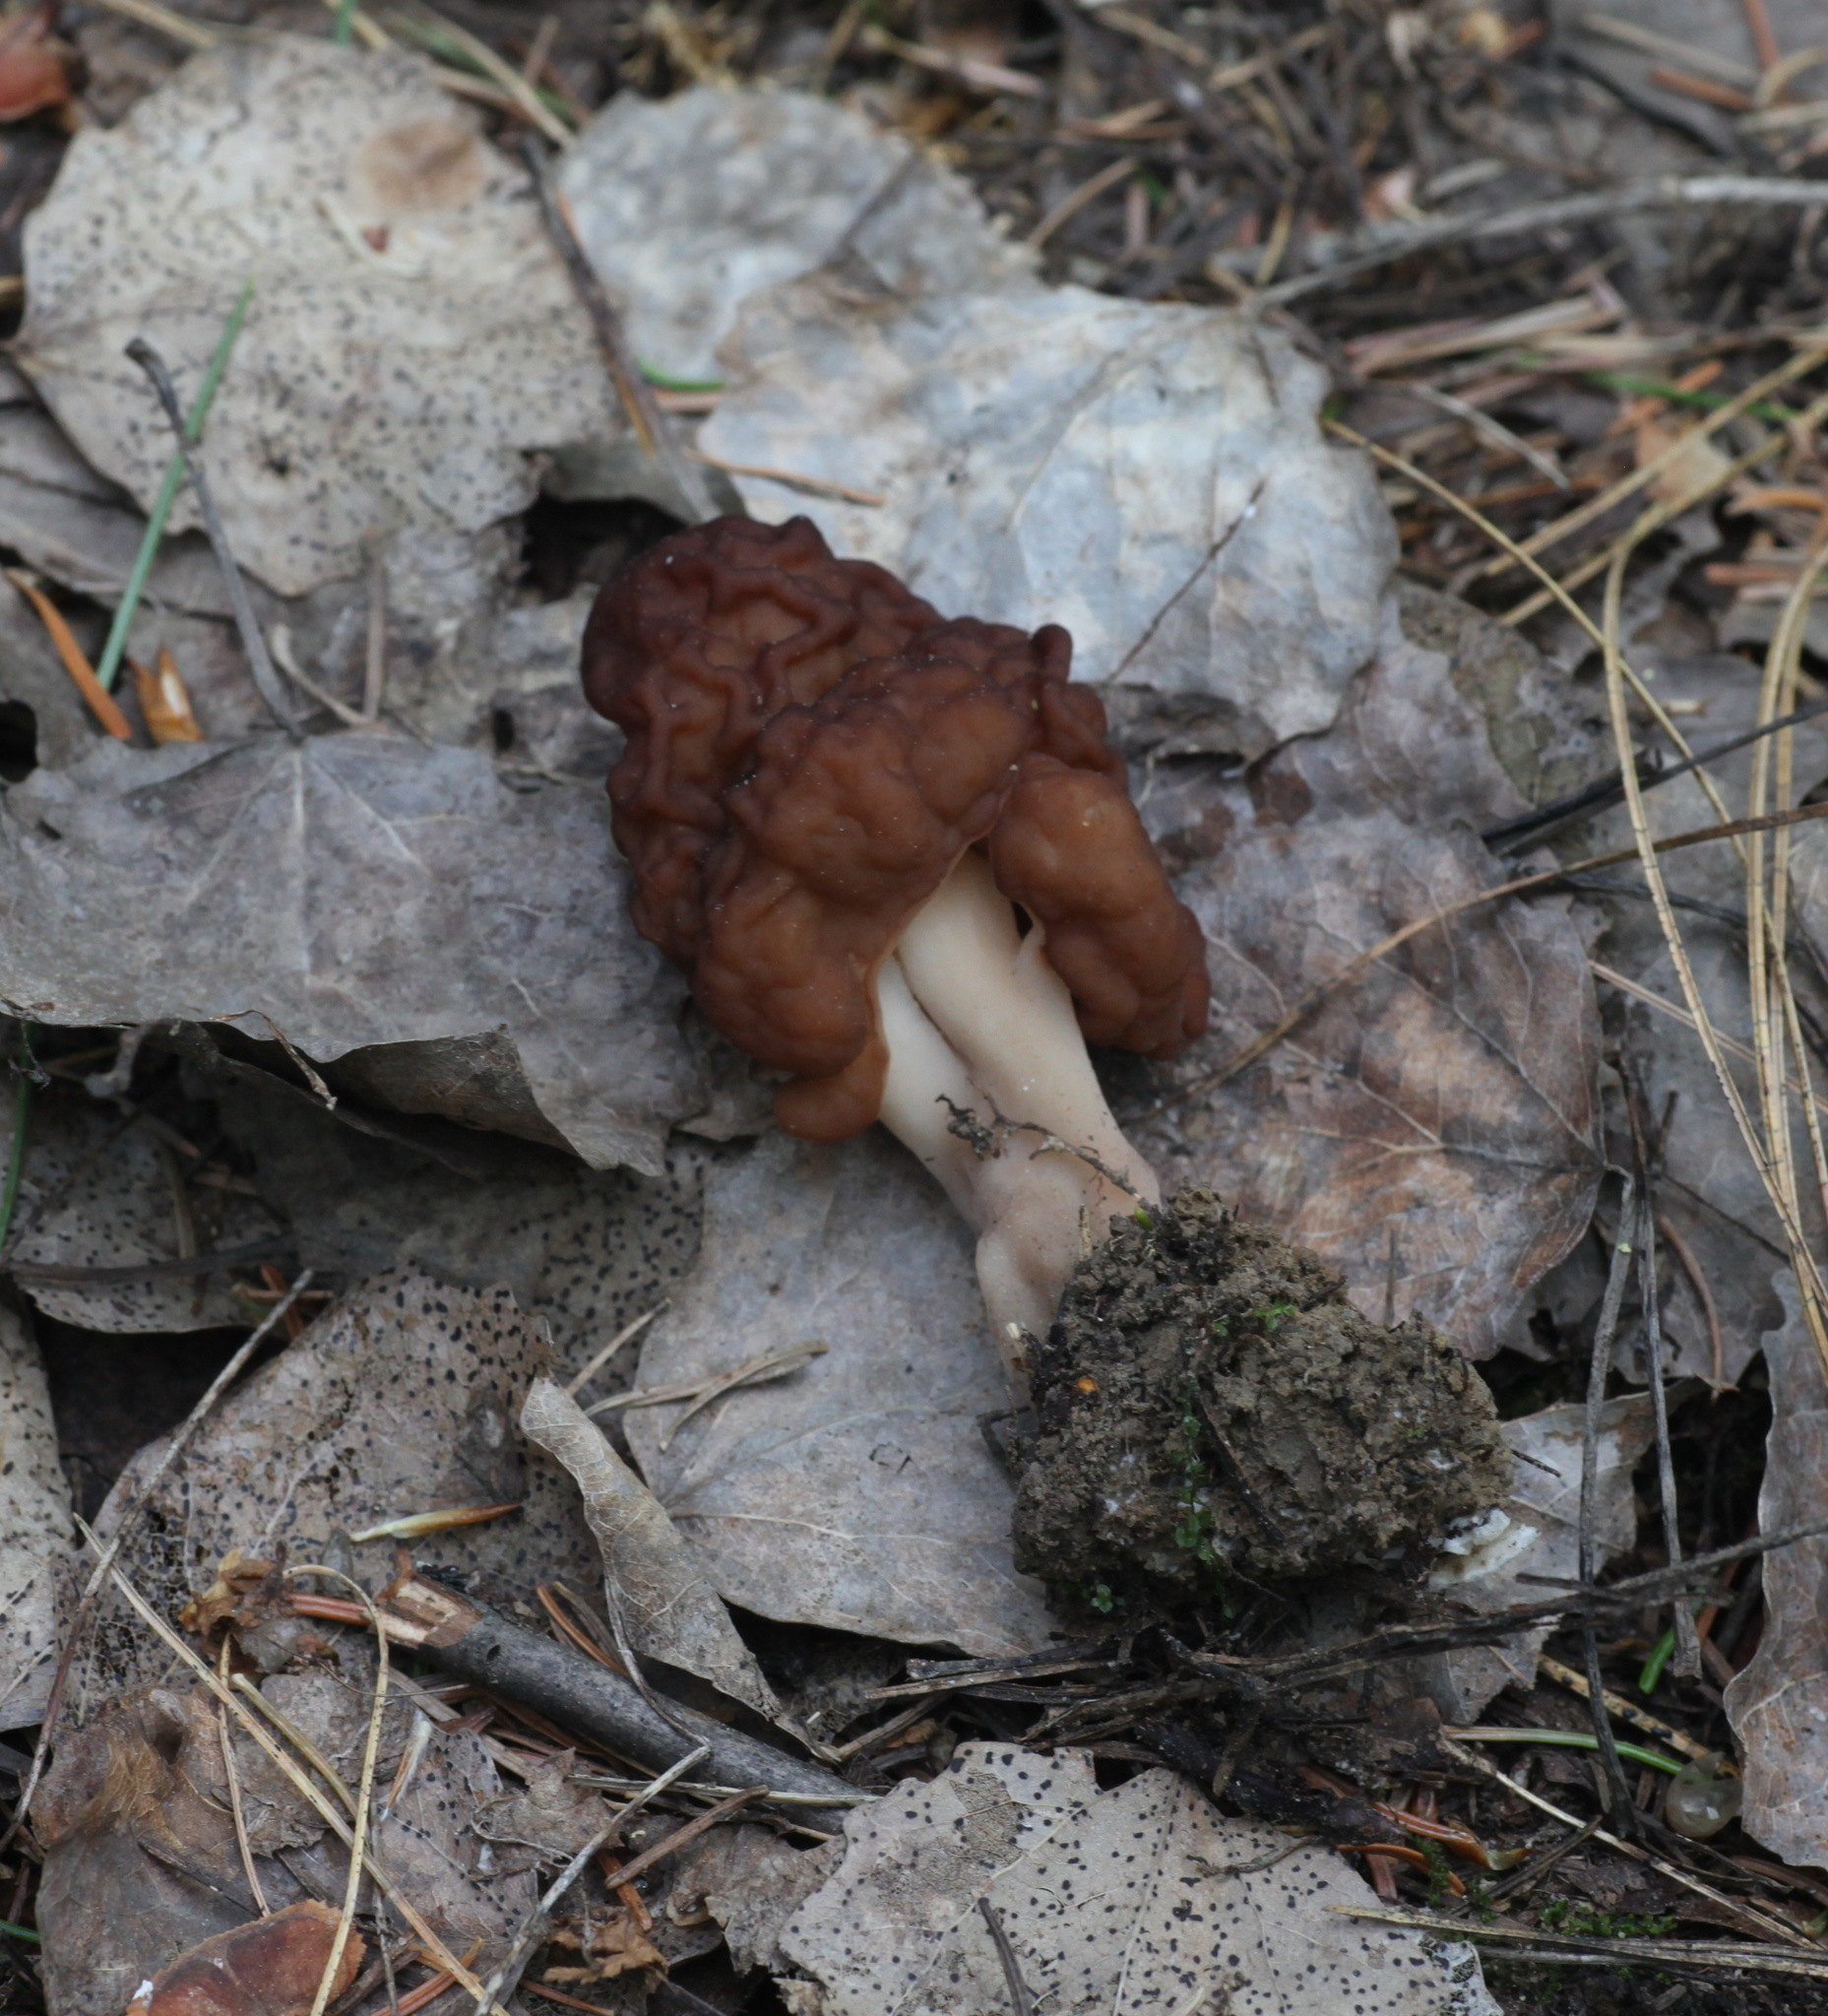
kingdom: Fungi
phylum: Ascomycota
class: Pezizomycetes
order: Pezizales
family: Discinaceae
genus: Gyromitra
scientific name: Gyromitra esculenta
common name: False morel
